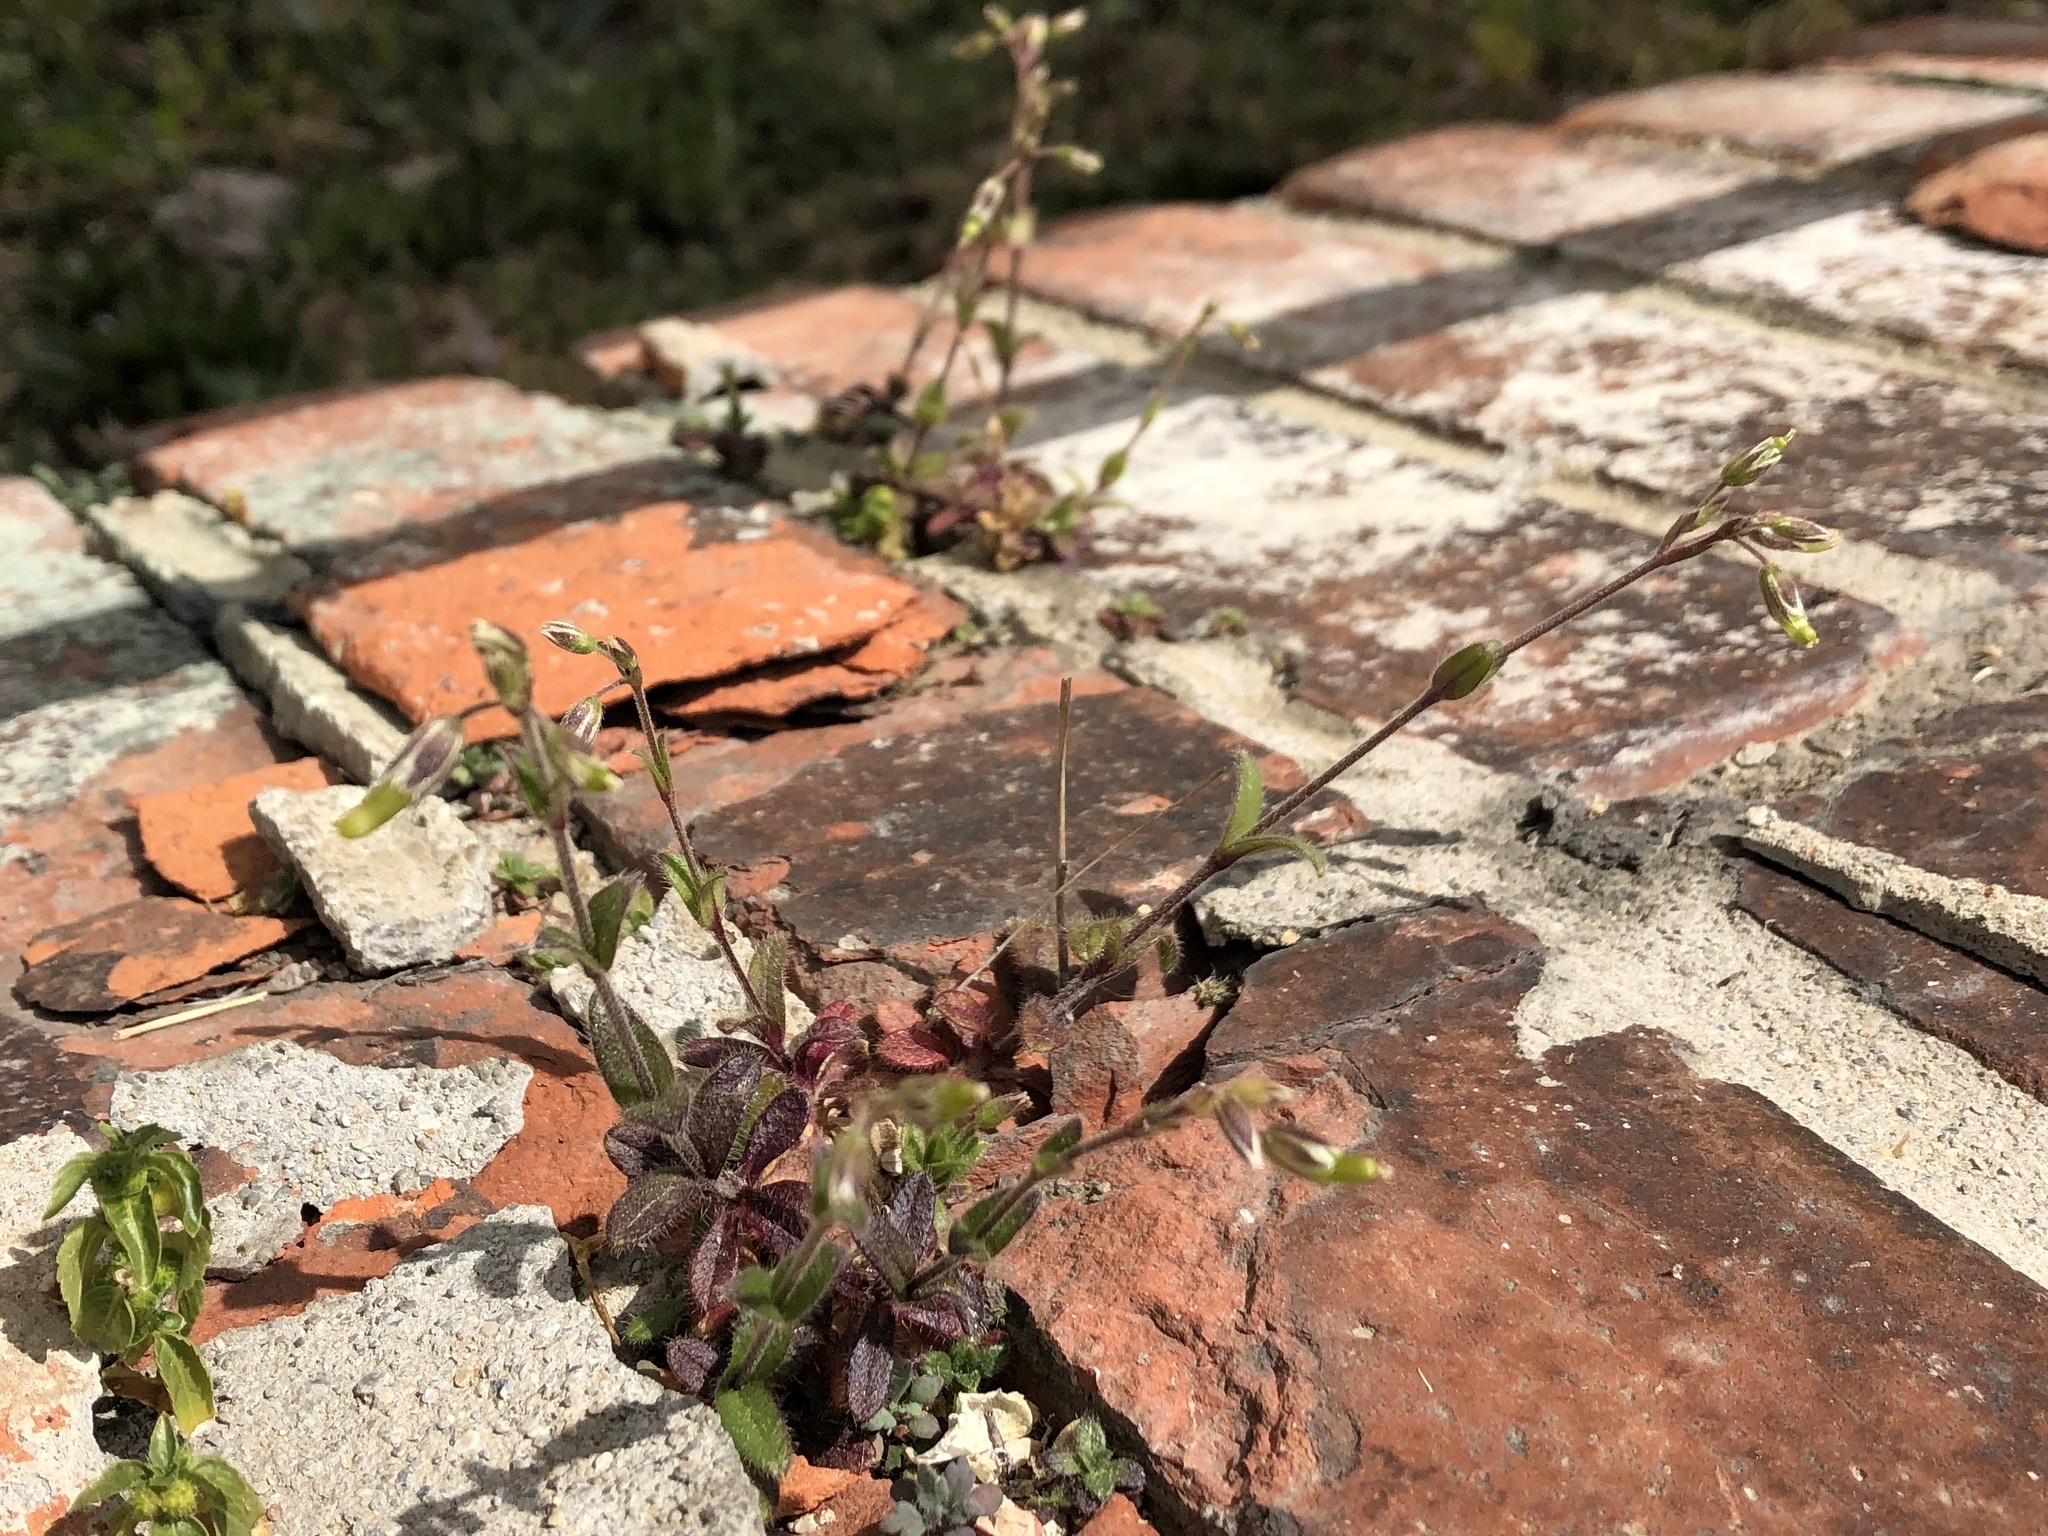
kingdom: Plantae
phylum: Tracheophyta
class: Magnoliopsida
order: Caryophyllales
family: Caryophyllaceae
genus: Cerastium
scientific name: Cerastium holosteoides
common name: Big chickweed
